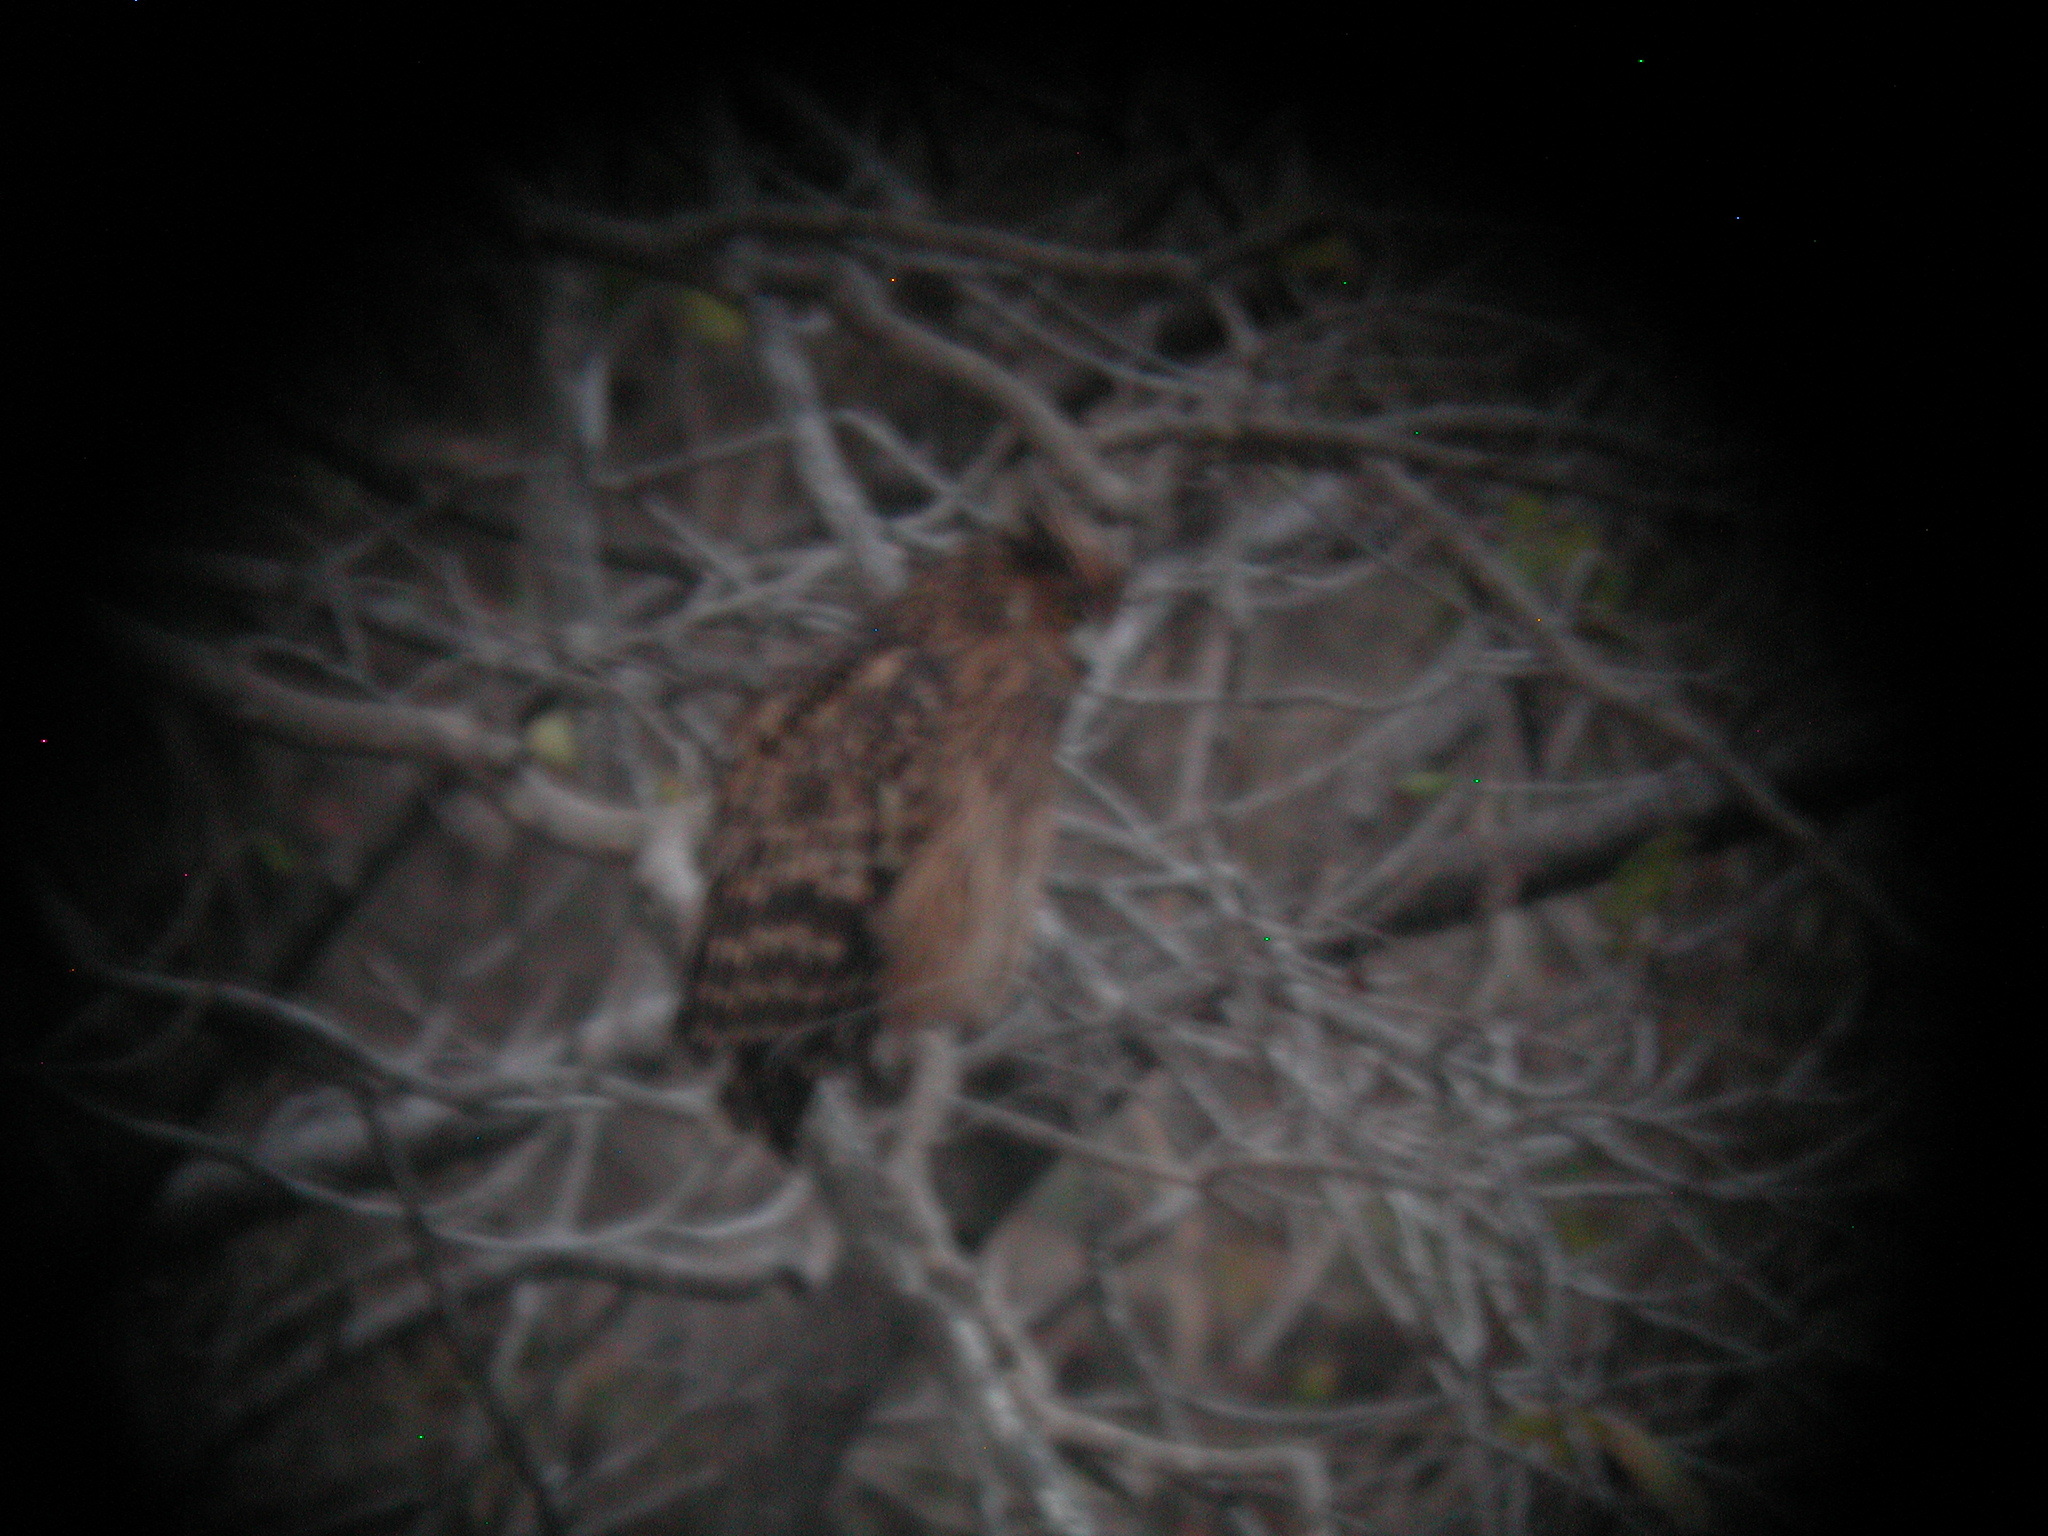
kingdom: Animalia
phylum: Chordata
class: Aves
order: Strigiformes
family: Strigidae
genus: Ketupa
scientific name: Ketupa flavipes
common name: Tawny fish owl
